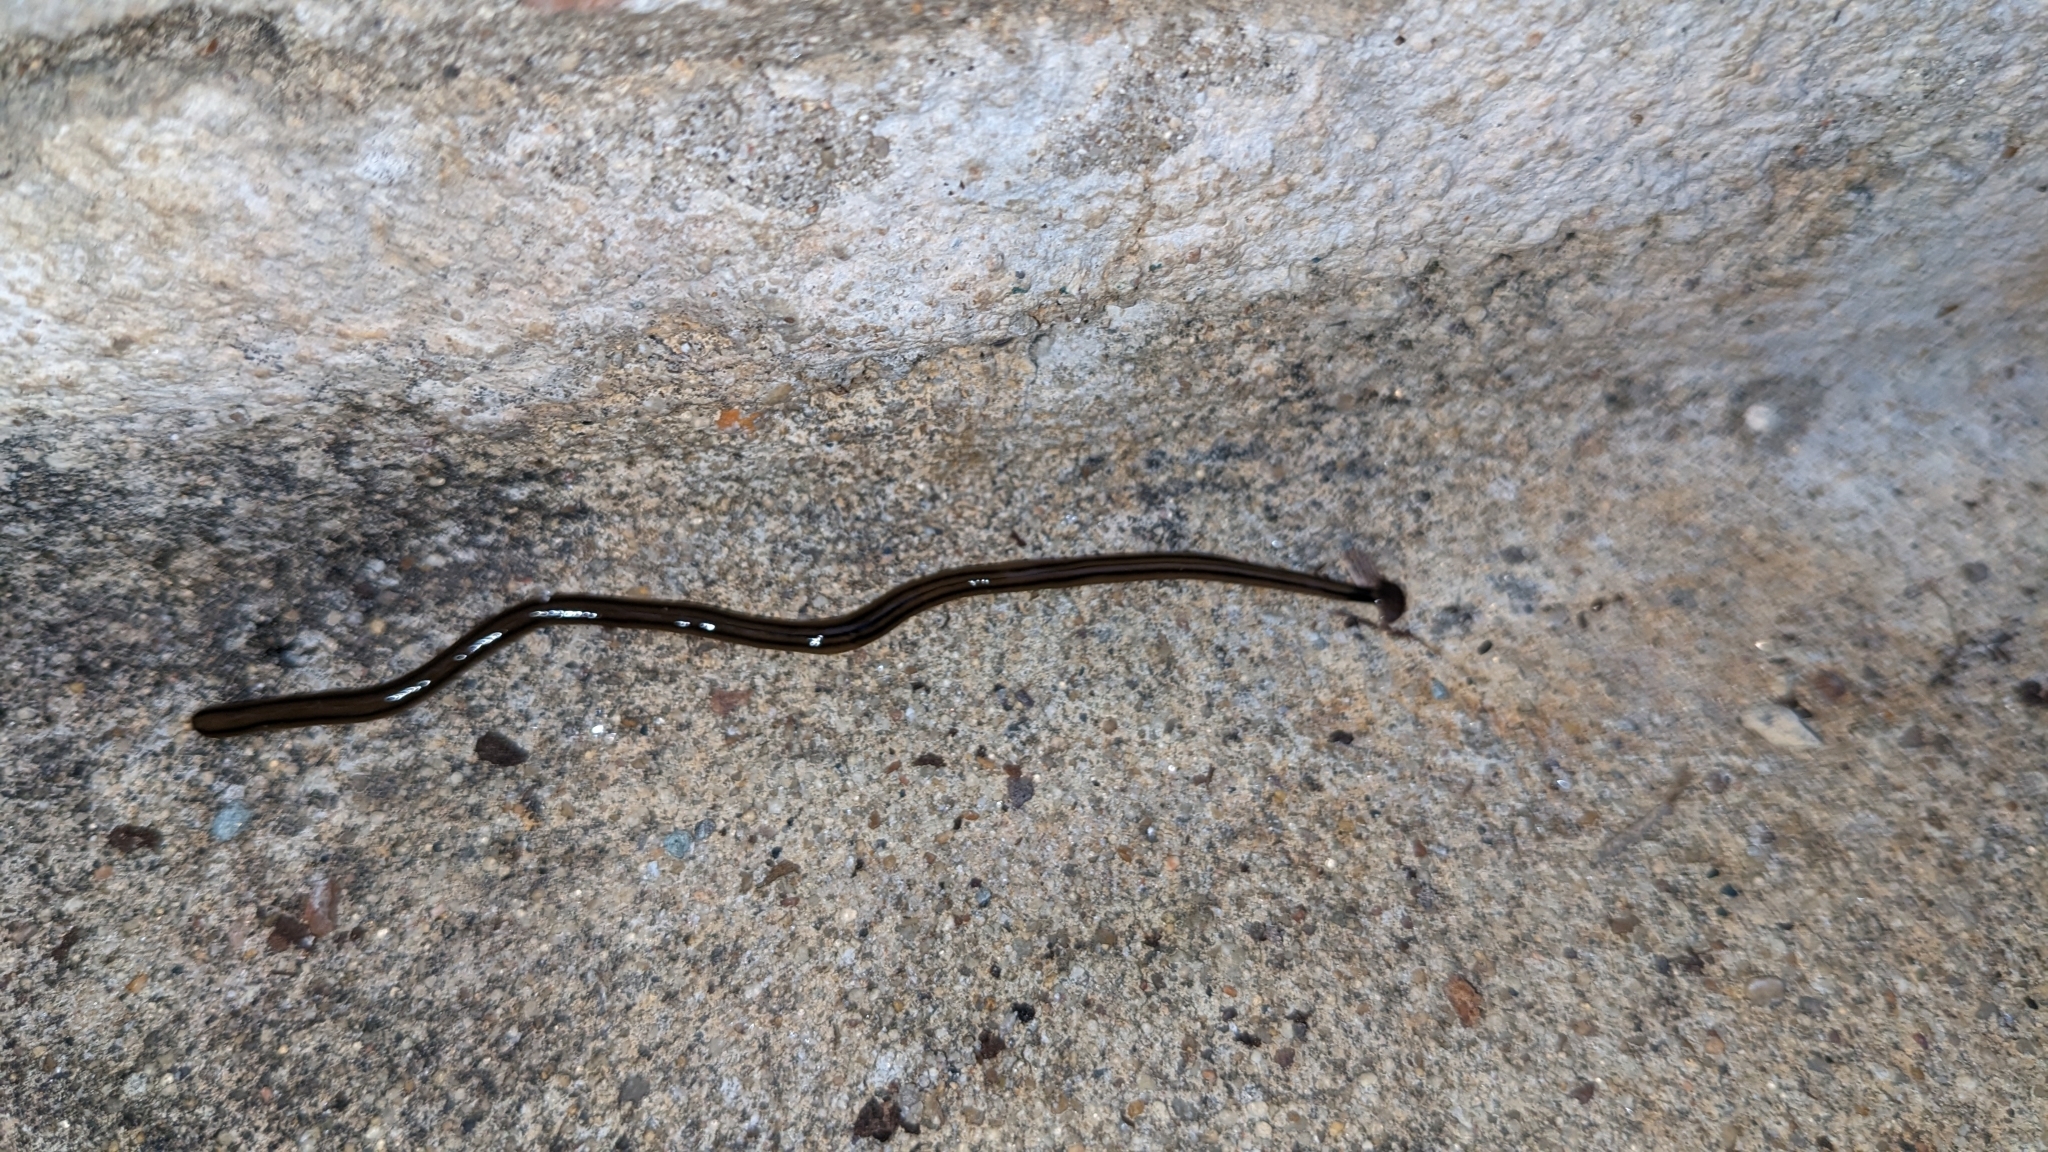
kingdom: Animalia
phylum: Platyhelminthes
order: Tricladida
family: Geoplanidae
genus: Bipalium
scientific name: Bipalium kewense
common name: Hammerhead flatworm
